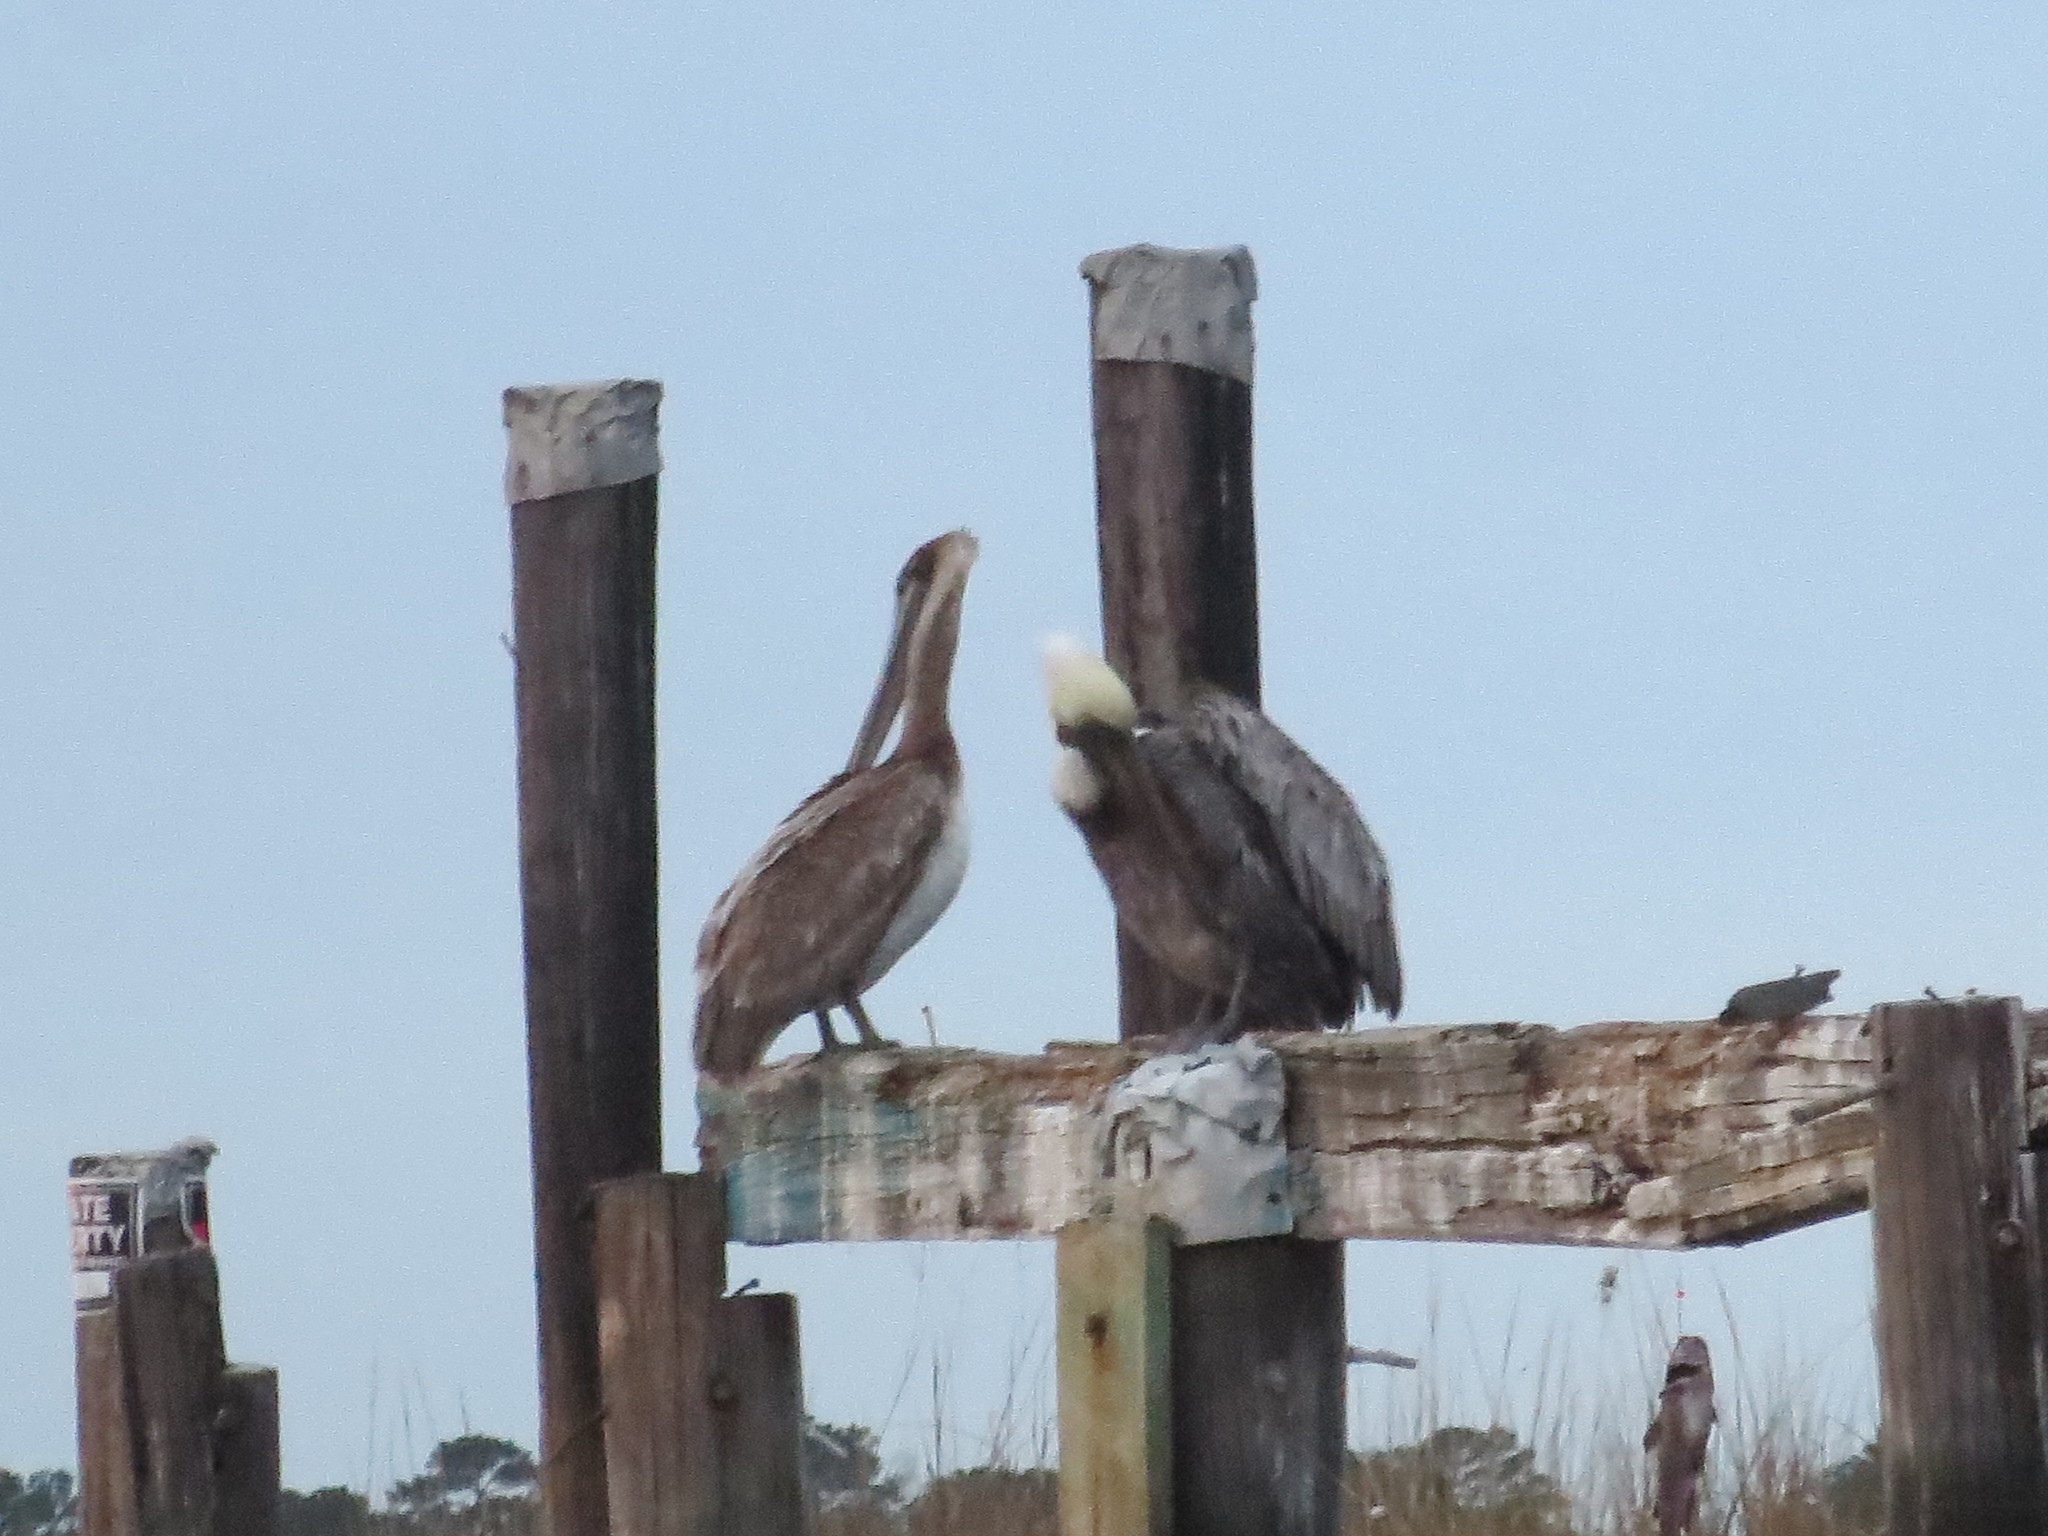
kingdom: Animalia
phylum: Chordata
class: Aves
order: Pelecaniformes
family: Pelecanidae
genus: Pelecanus
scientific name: Pelecanus occidentalis
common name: Brown pelican
